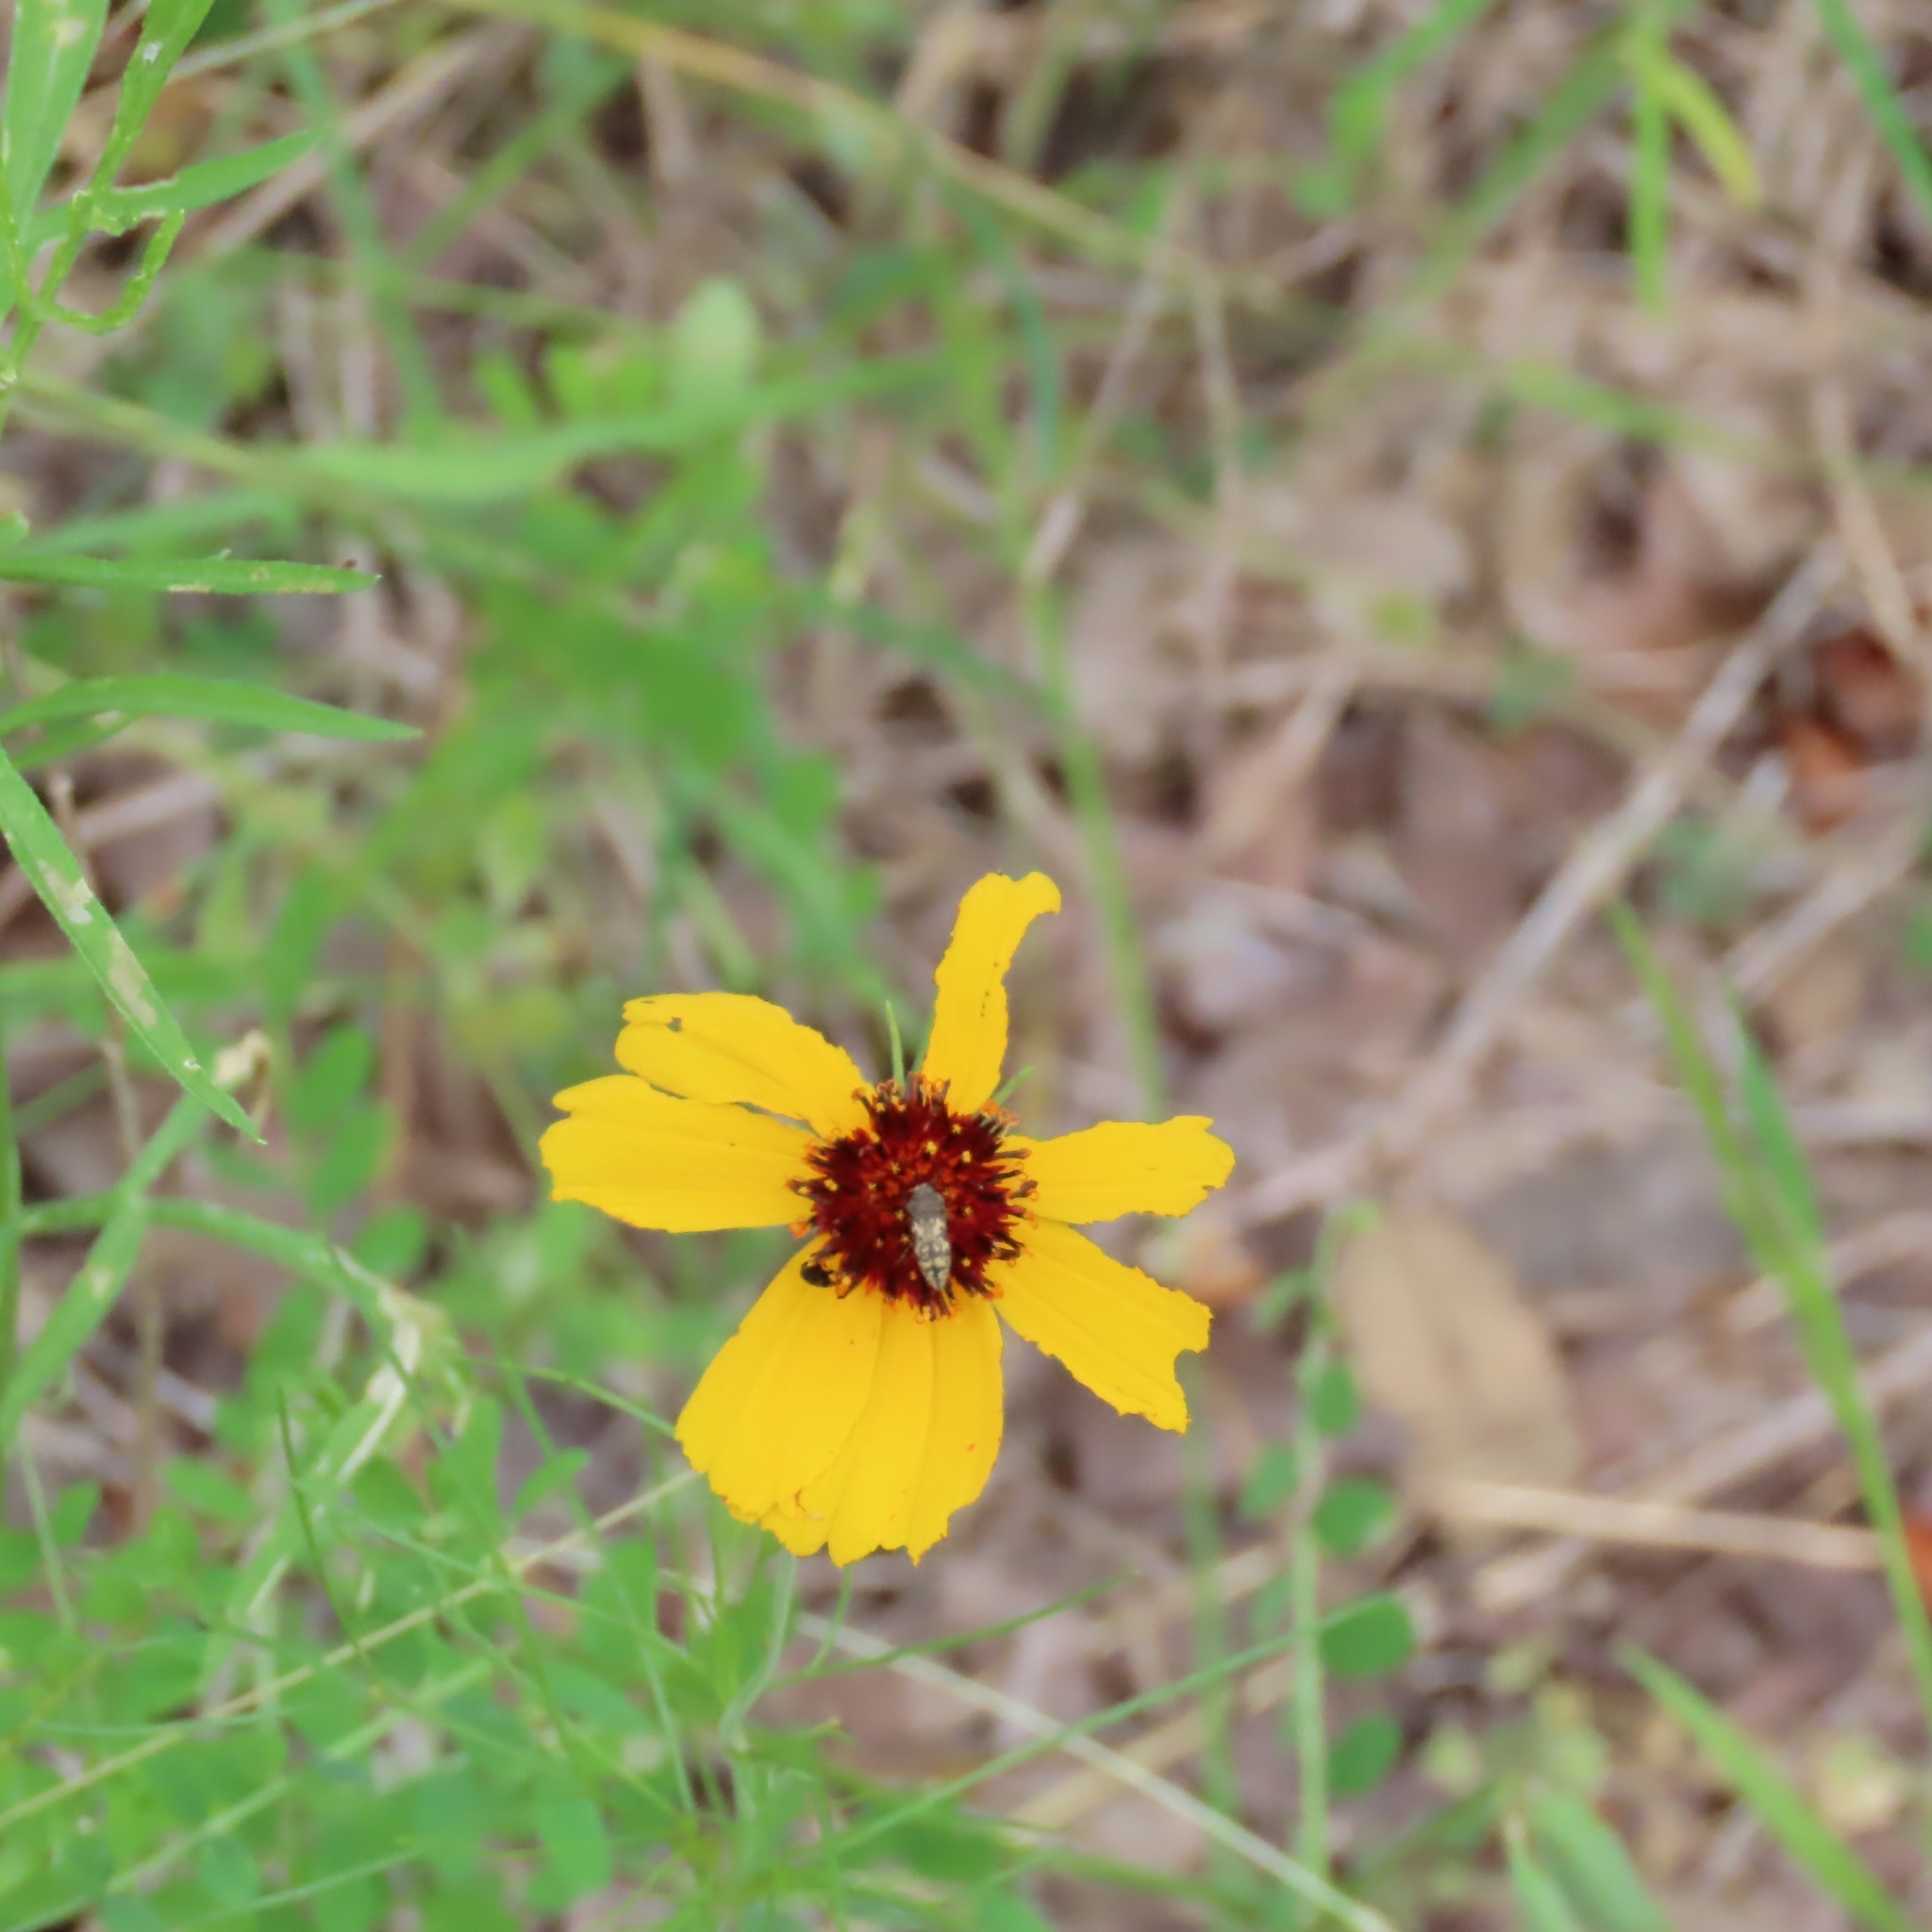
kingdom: Plantae
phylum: Tracheophyta
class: Magnoliopsida
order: Asterales
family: Asteraceae
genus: Thelesperma
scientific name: Thelesperma filifolium
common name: Stiff greenthread
